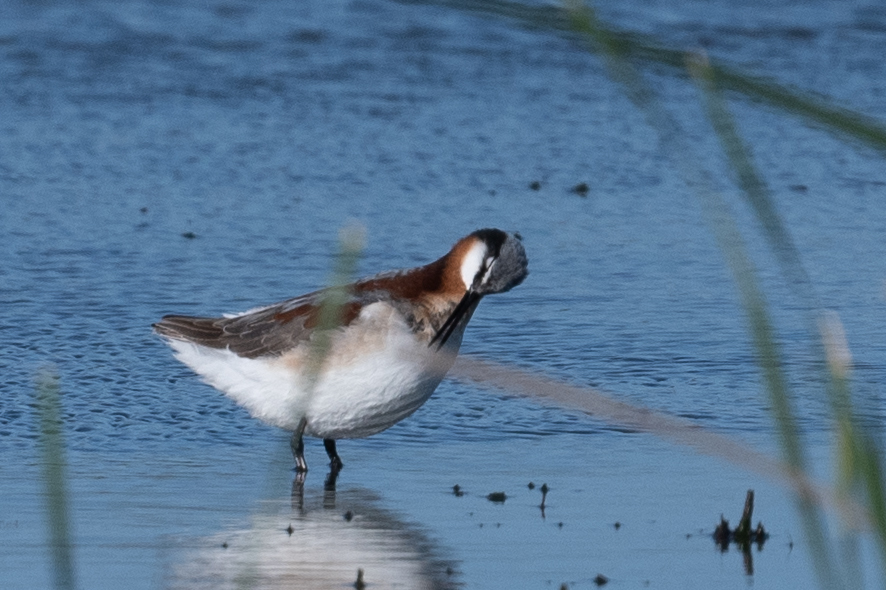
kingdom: Animalia
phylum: Chordata
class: Aves
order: Charadriiformes
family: Scolopacidae
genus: Phalaropus
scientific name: Phalaropus tricolor
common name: Wilson's phalarope
